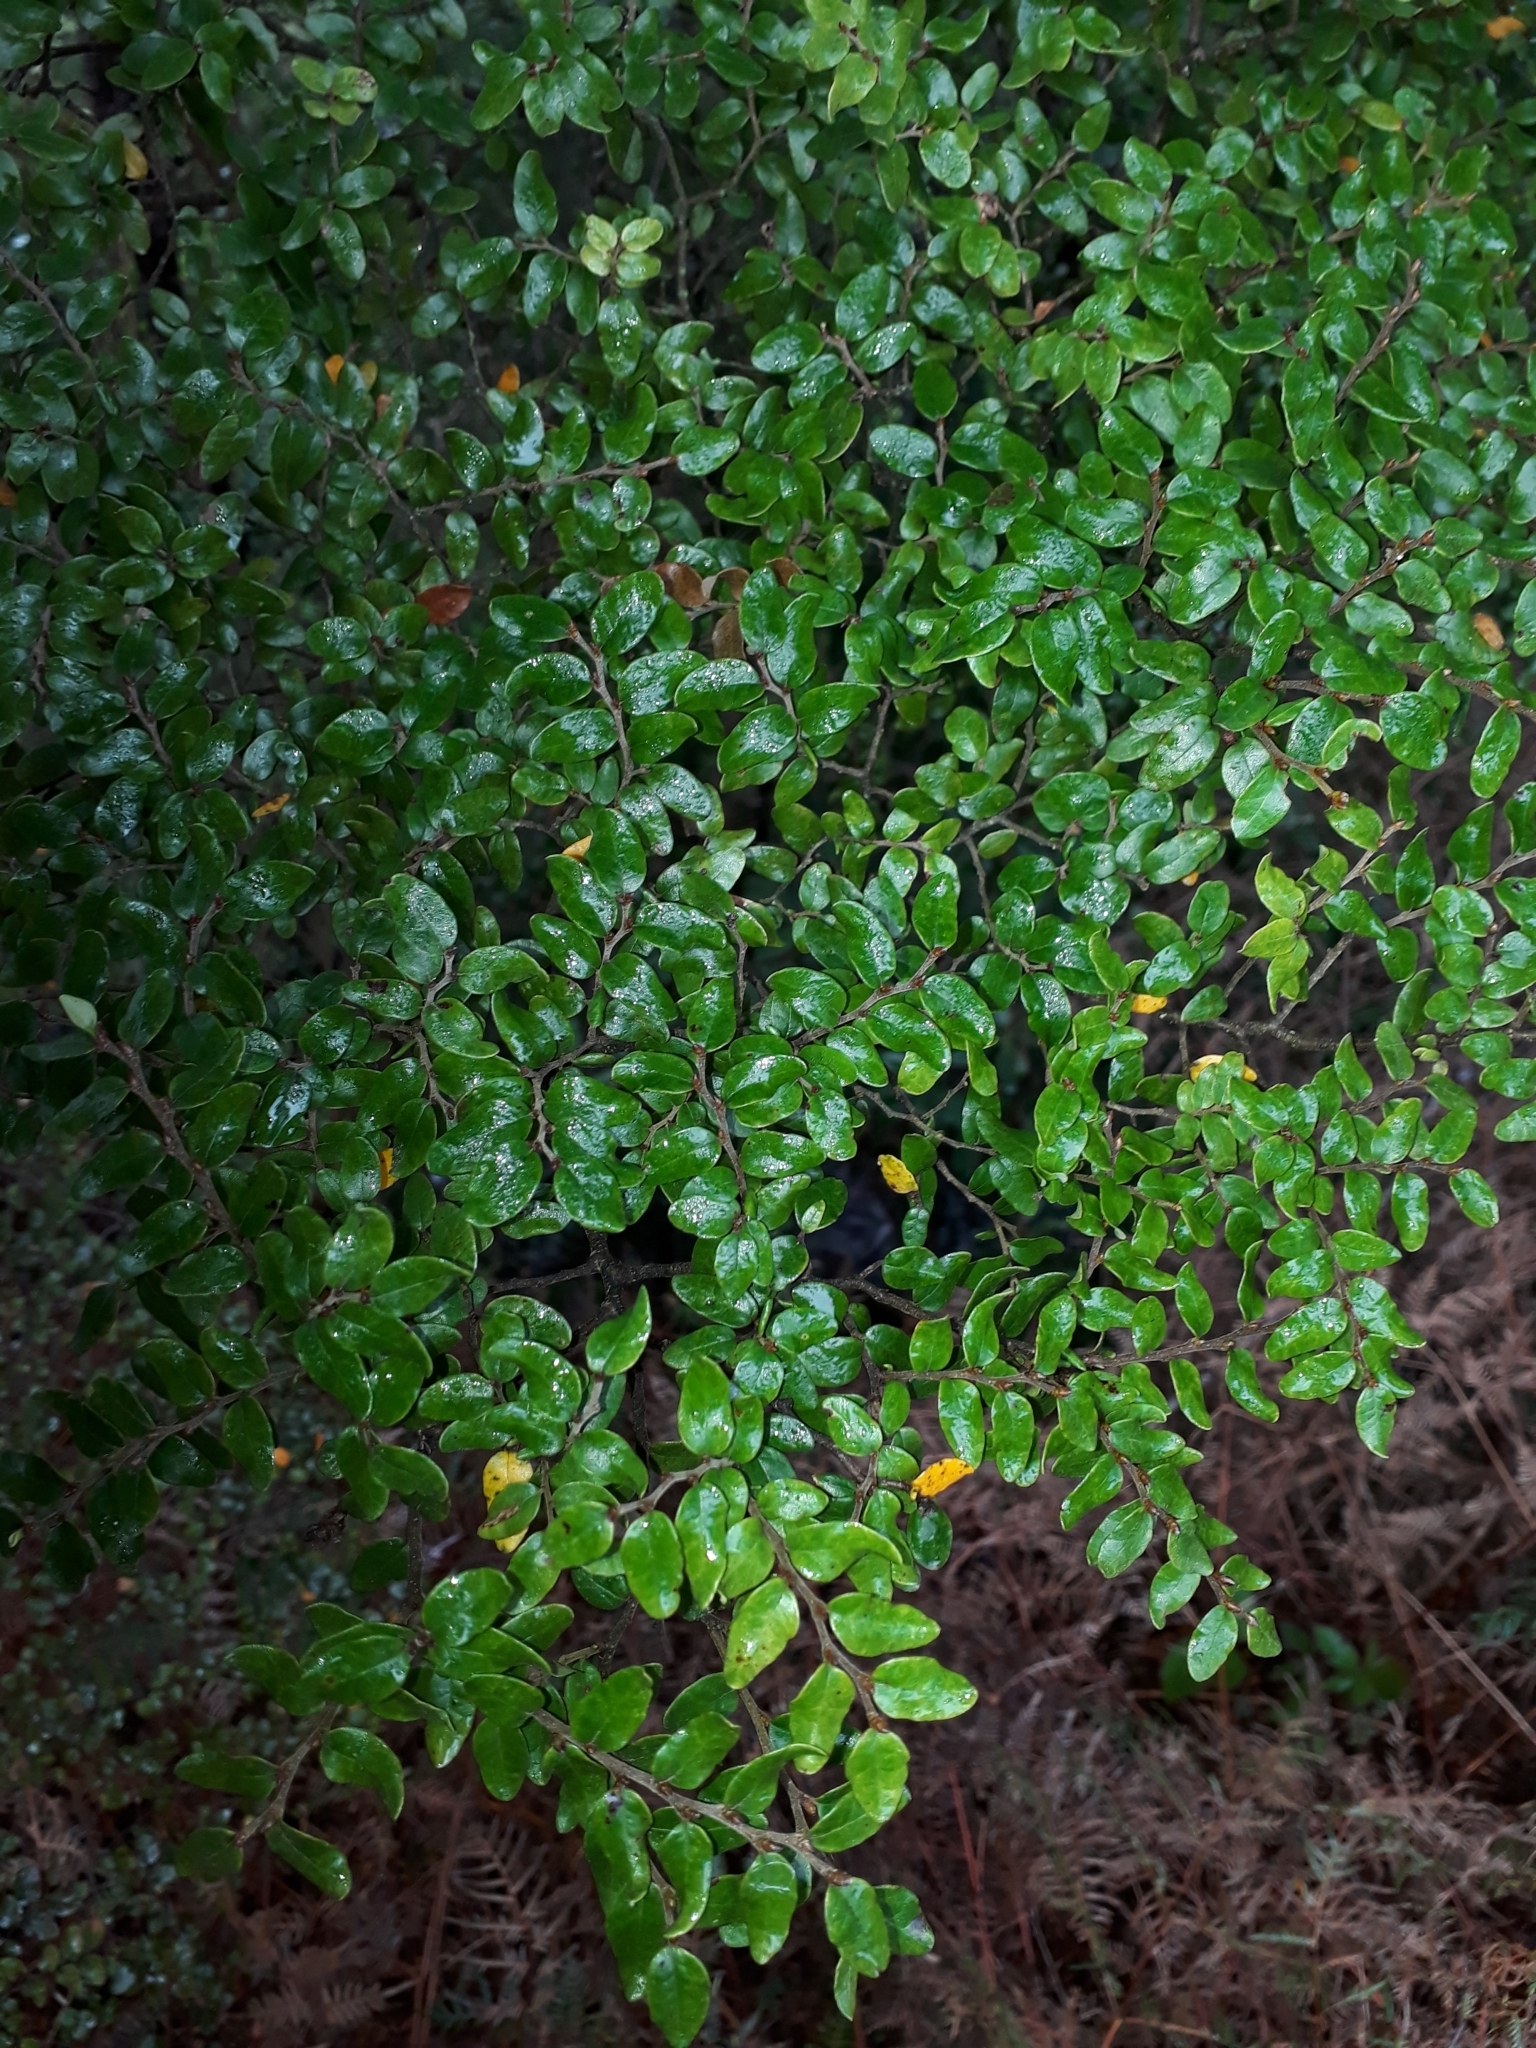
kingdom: Plantae
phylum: Tracheophyta
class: Magnoliopsida
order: Fagales
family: Nothofagaceae
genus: Nothofagus
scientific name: Nothofagus cliffortioides
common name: Mountain beech
